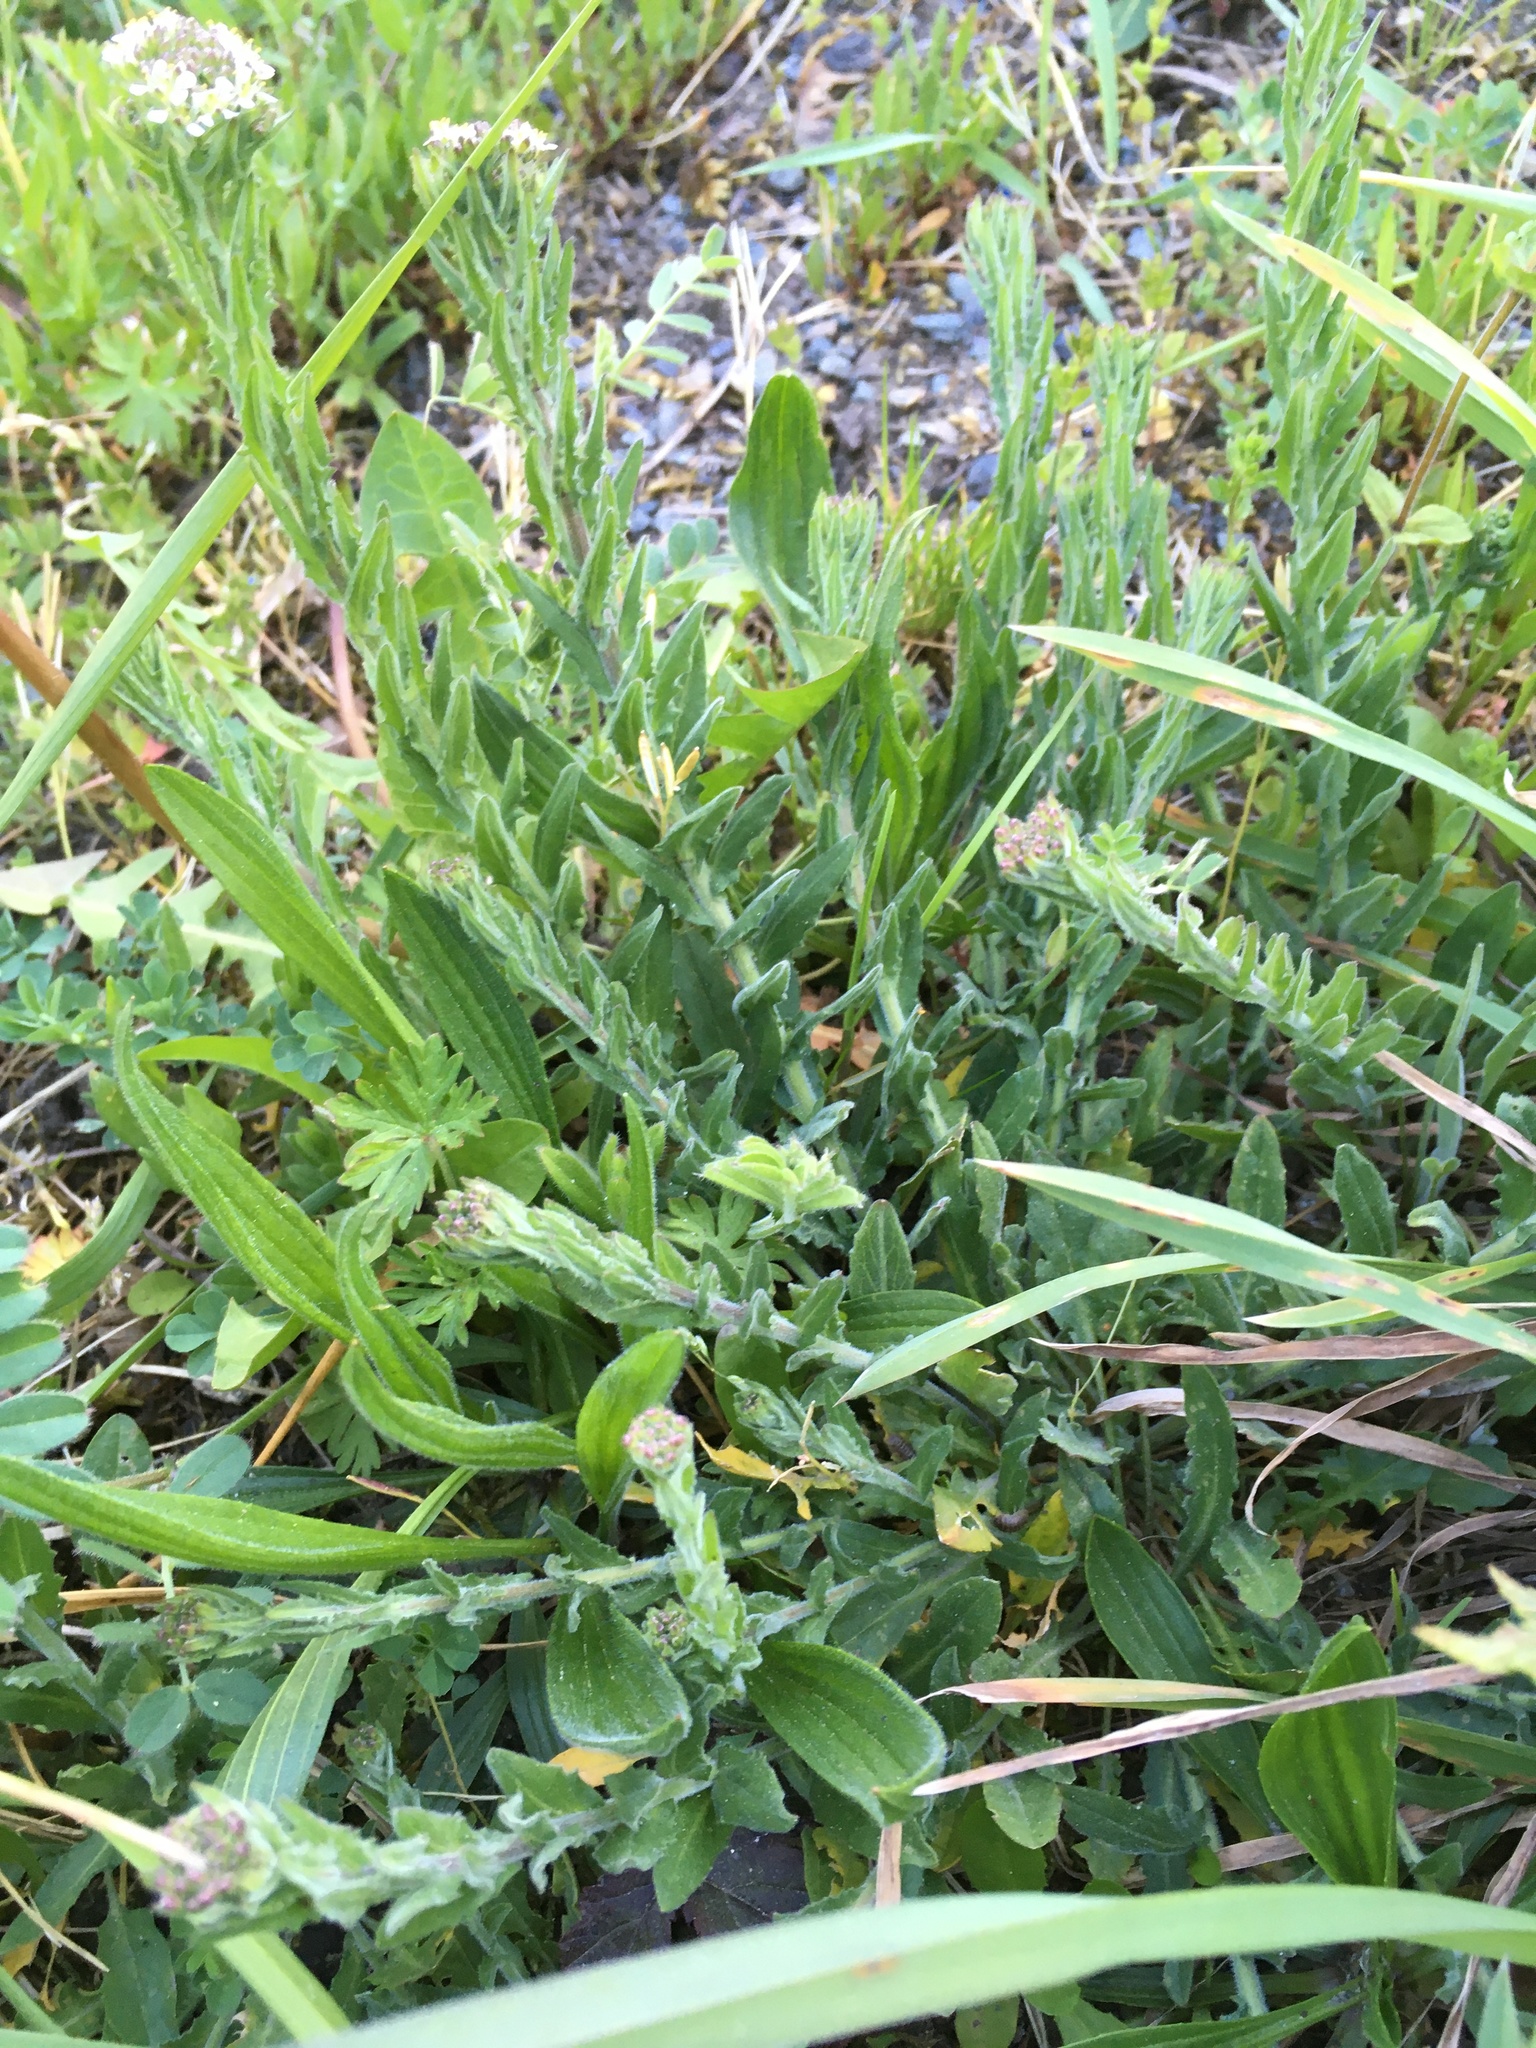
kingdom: Plantae
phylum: Tracheophyta
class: Magnoliopsida
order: Brassicales
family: Brassicaceae
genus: Lepidium
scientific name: Lepidium campestre
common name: Field pepperwort
